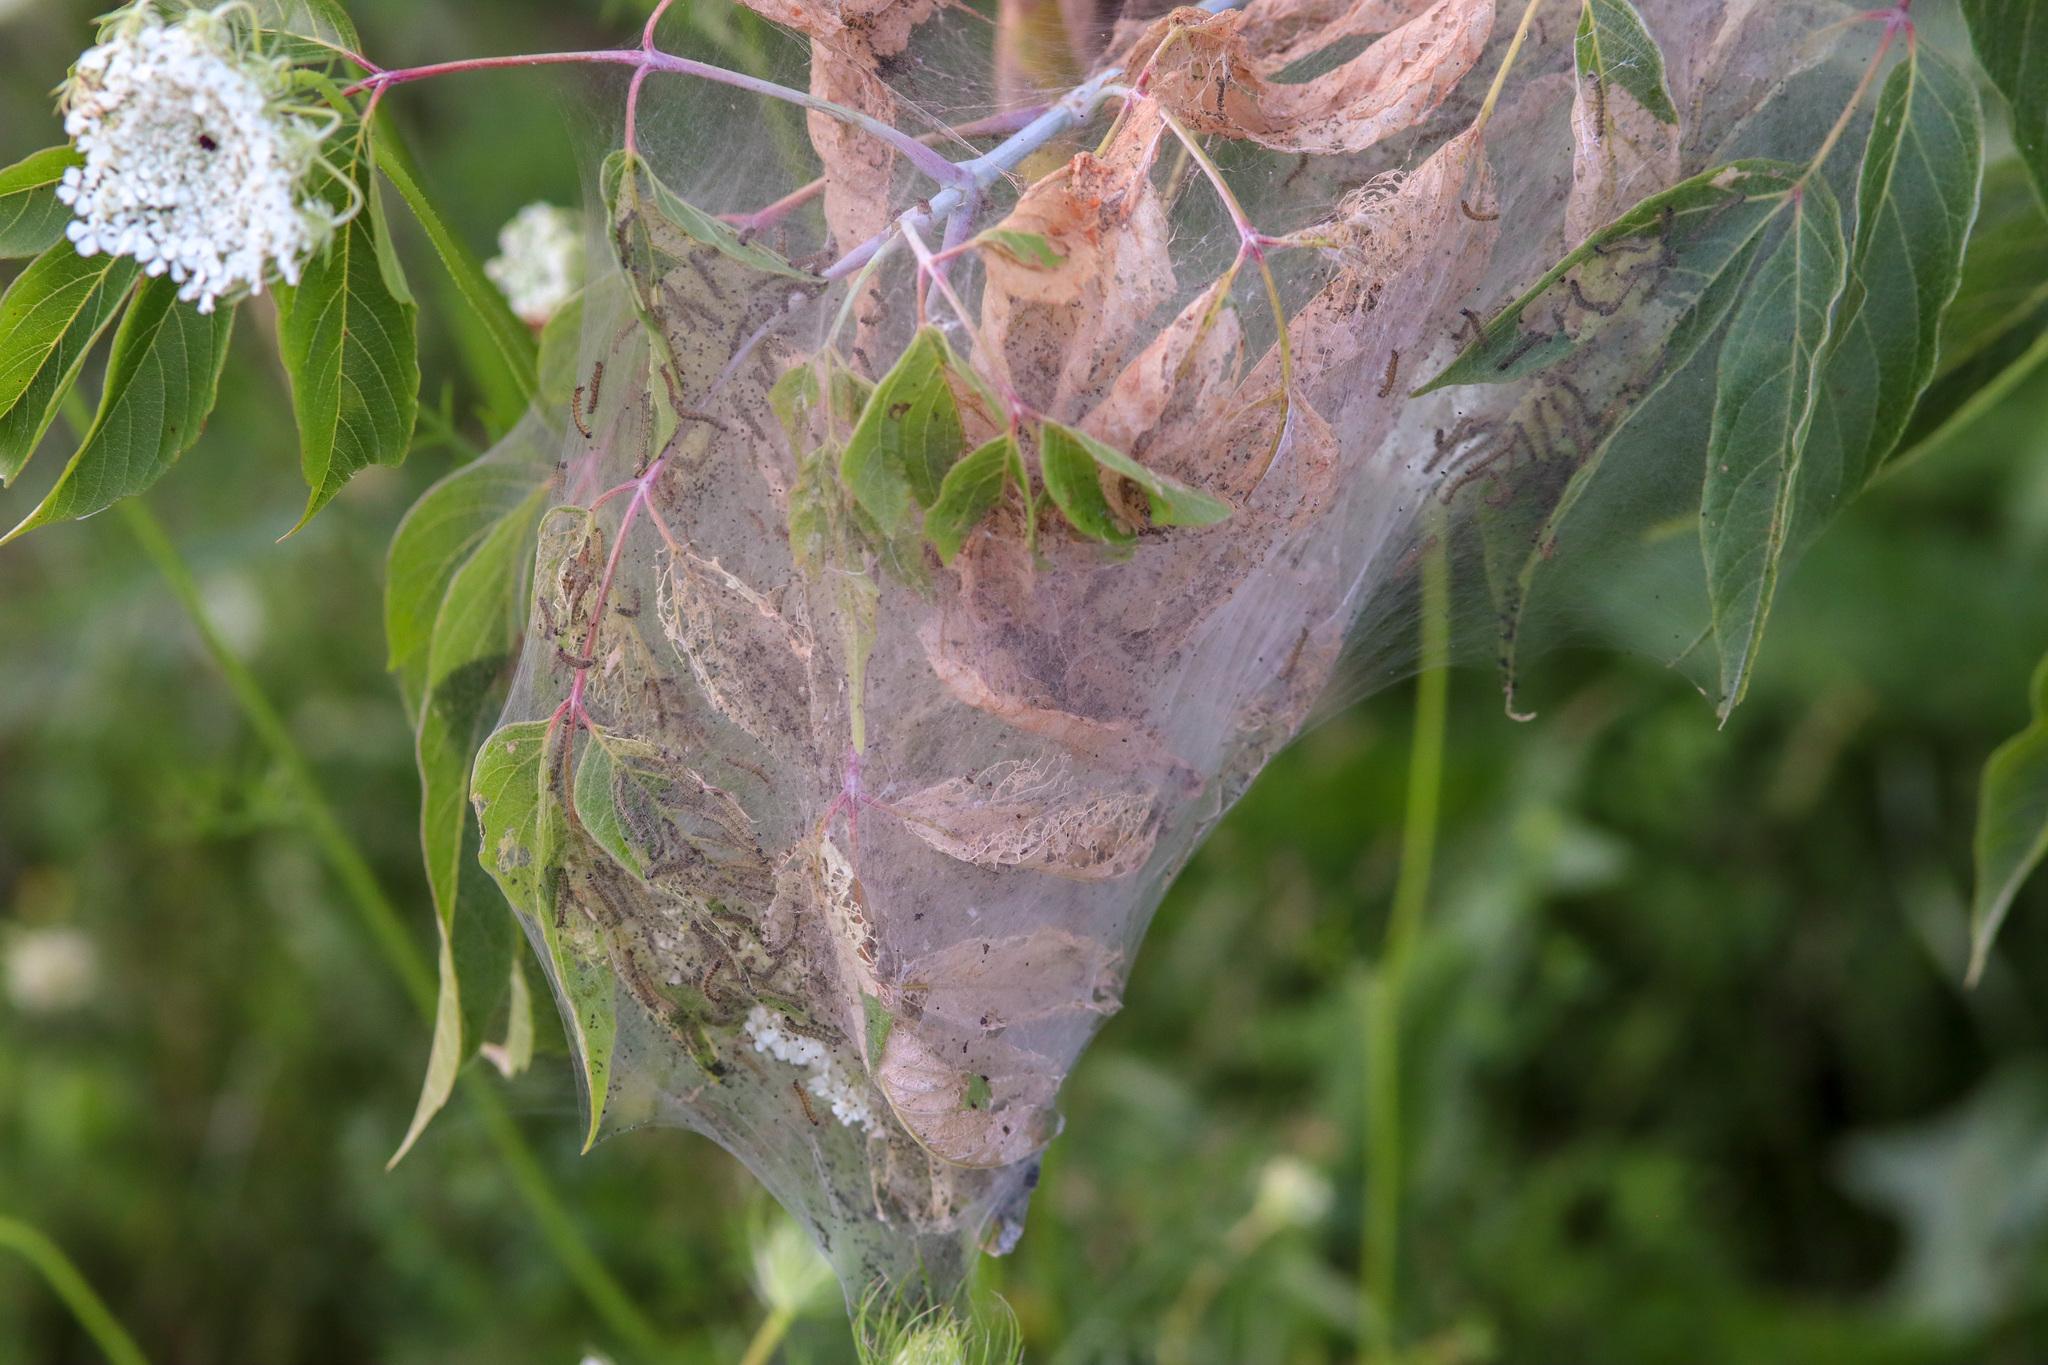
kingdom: Animalia
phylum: Arthropoda
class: Insecta
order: Lepidoptera
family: Erebidae
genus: Hyphantria
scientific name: Hyphantria cunea
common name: American white moth
